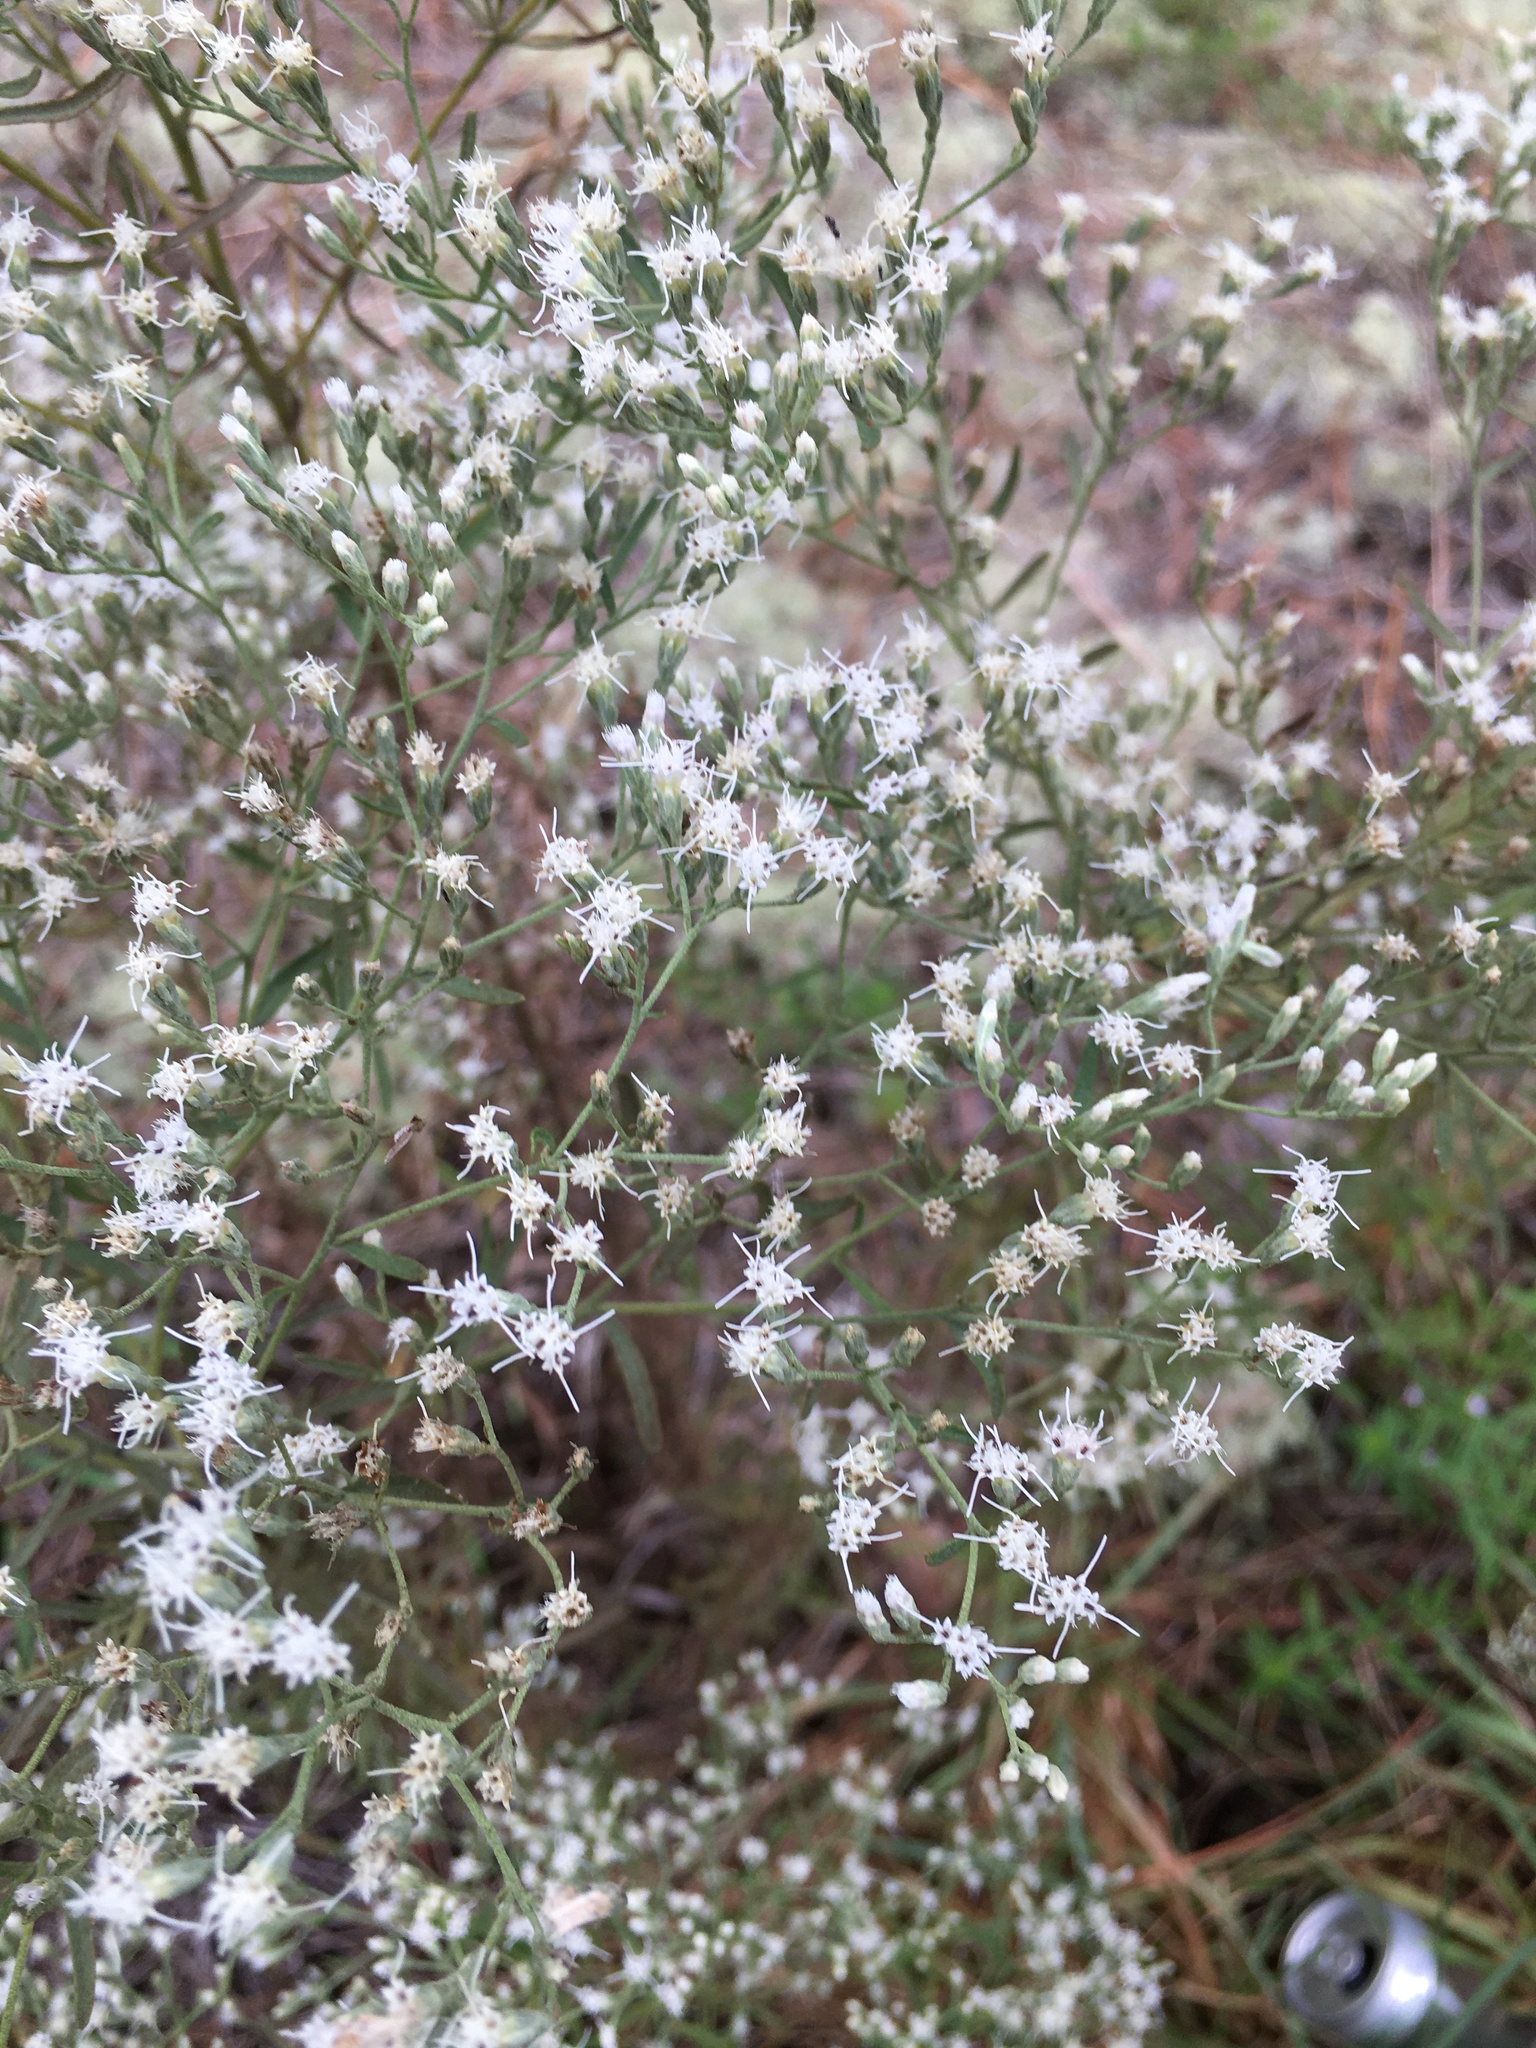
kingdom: Plantae
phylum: Tracheophyta
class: Magnoliopsida
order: Asterales
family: Asteraceae
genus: Eupatorium
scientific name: Eupatorium hyssopifolium
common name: Hyssop-leaf thoroughwort
